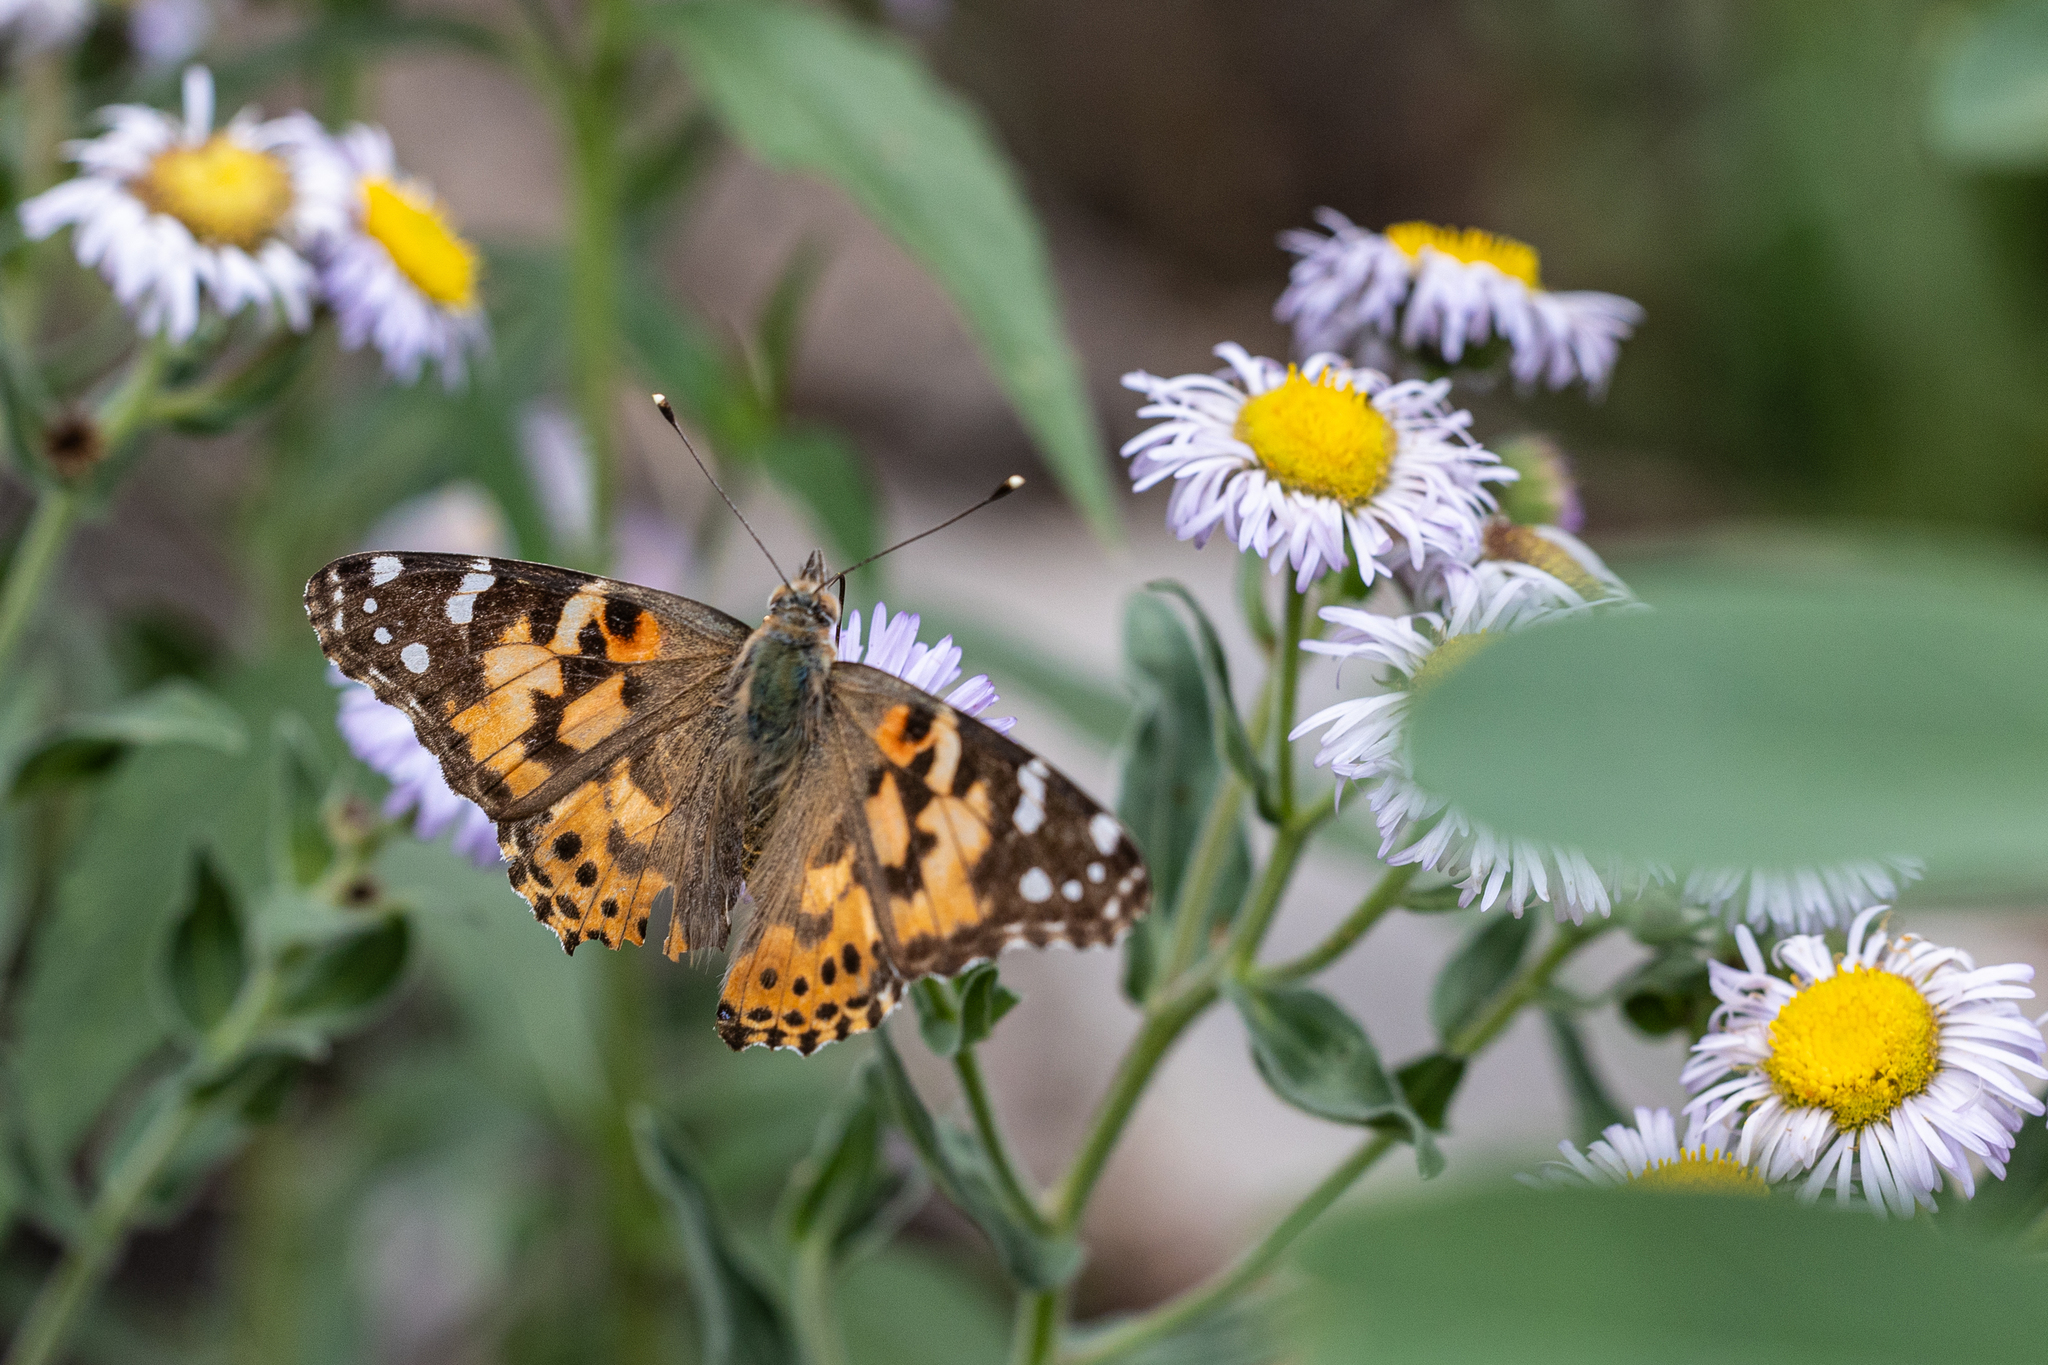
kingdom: Animalia
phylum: Arthropoda
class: Insecta
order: Lepidoptera
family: Nymphalidae
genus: Vanessa
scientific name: Vanessa cardui
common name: Painted lady
